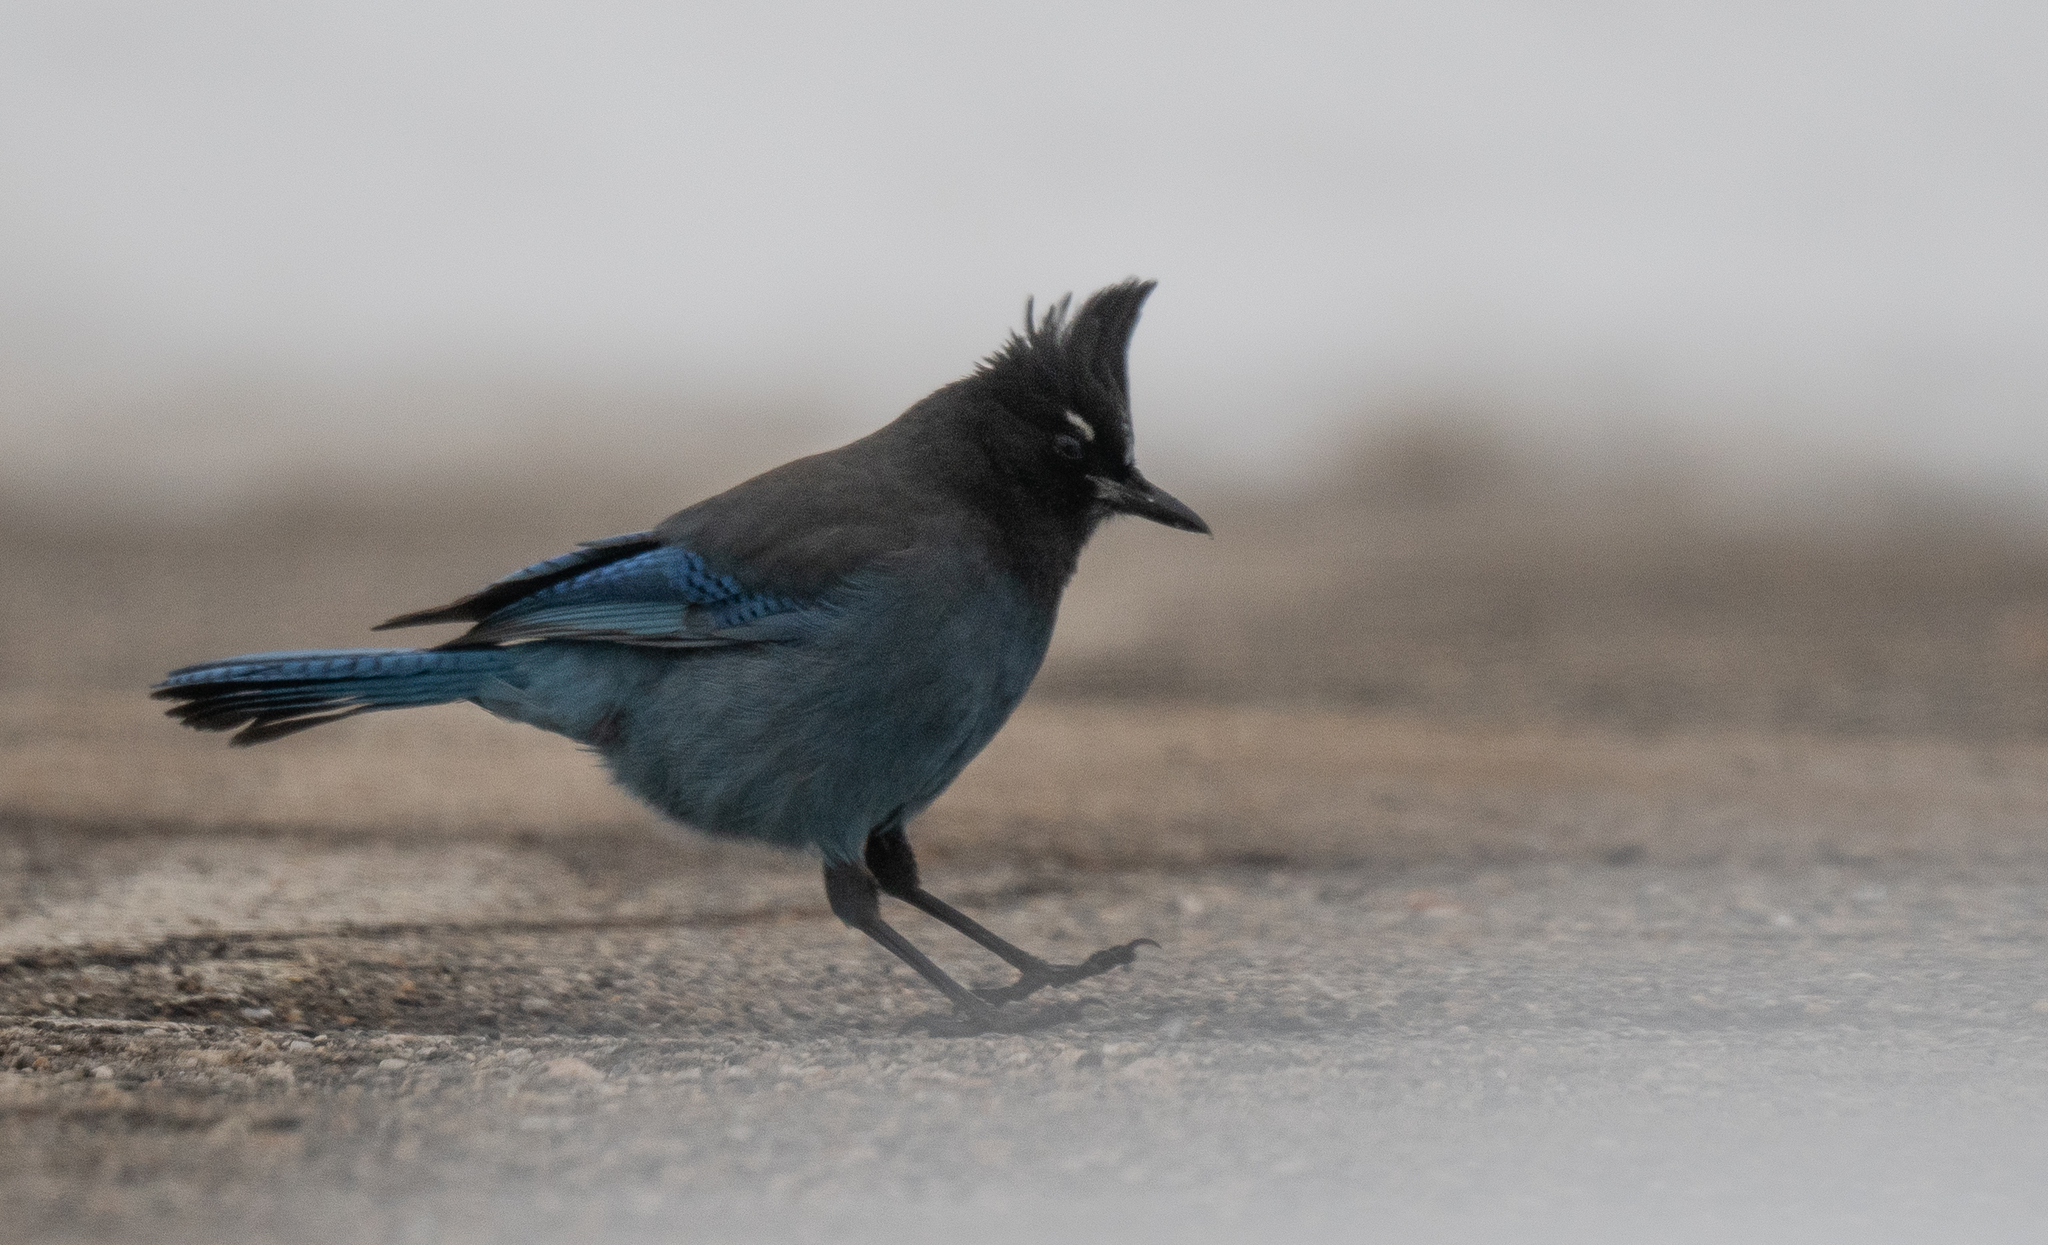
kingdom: Animalia
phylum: Chordata
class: Aves
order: Passeriformes
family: Corvidae
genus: Cyanocitta
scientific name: Cyanocitta stelleri
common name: Steller's jay
